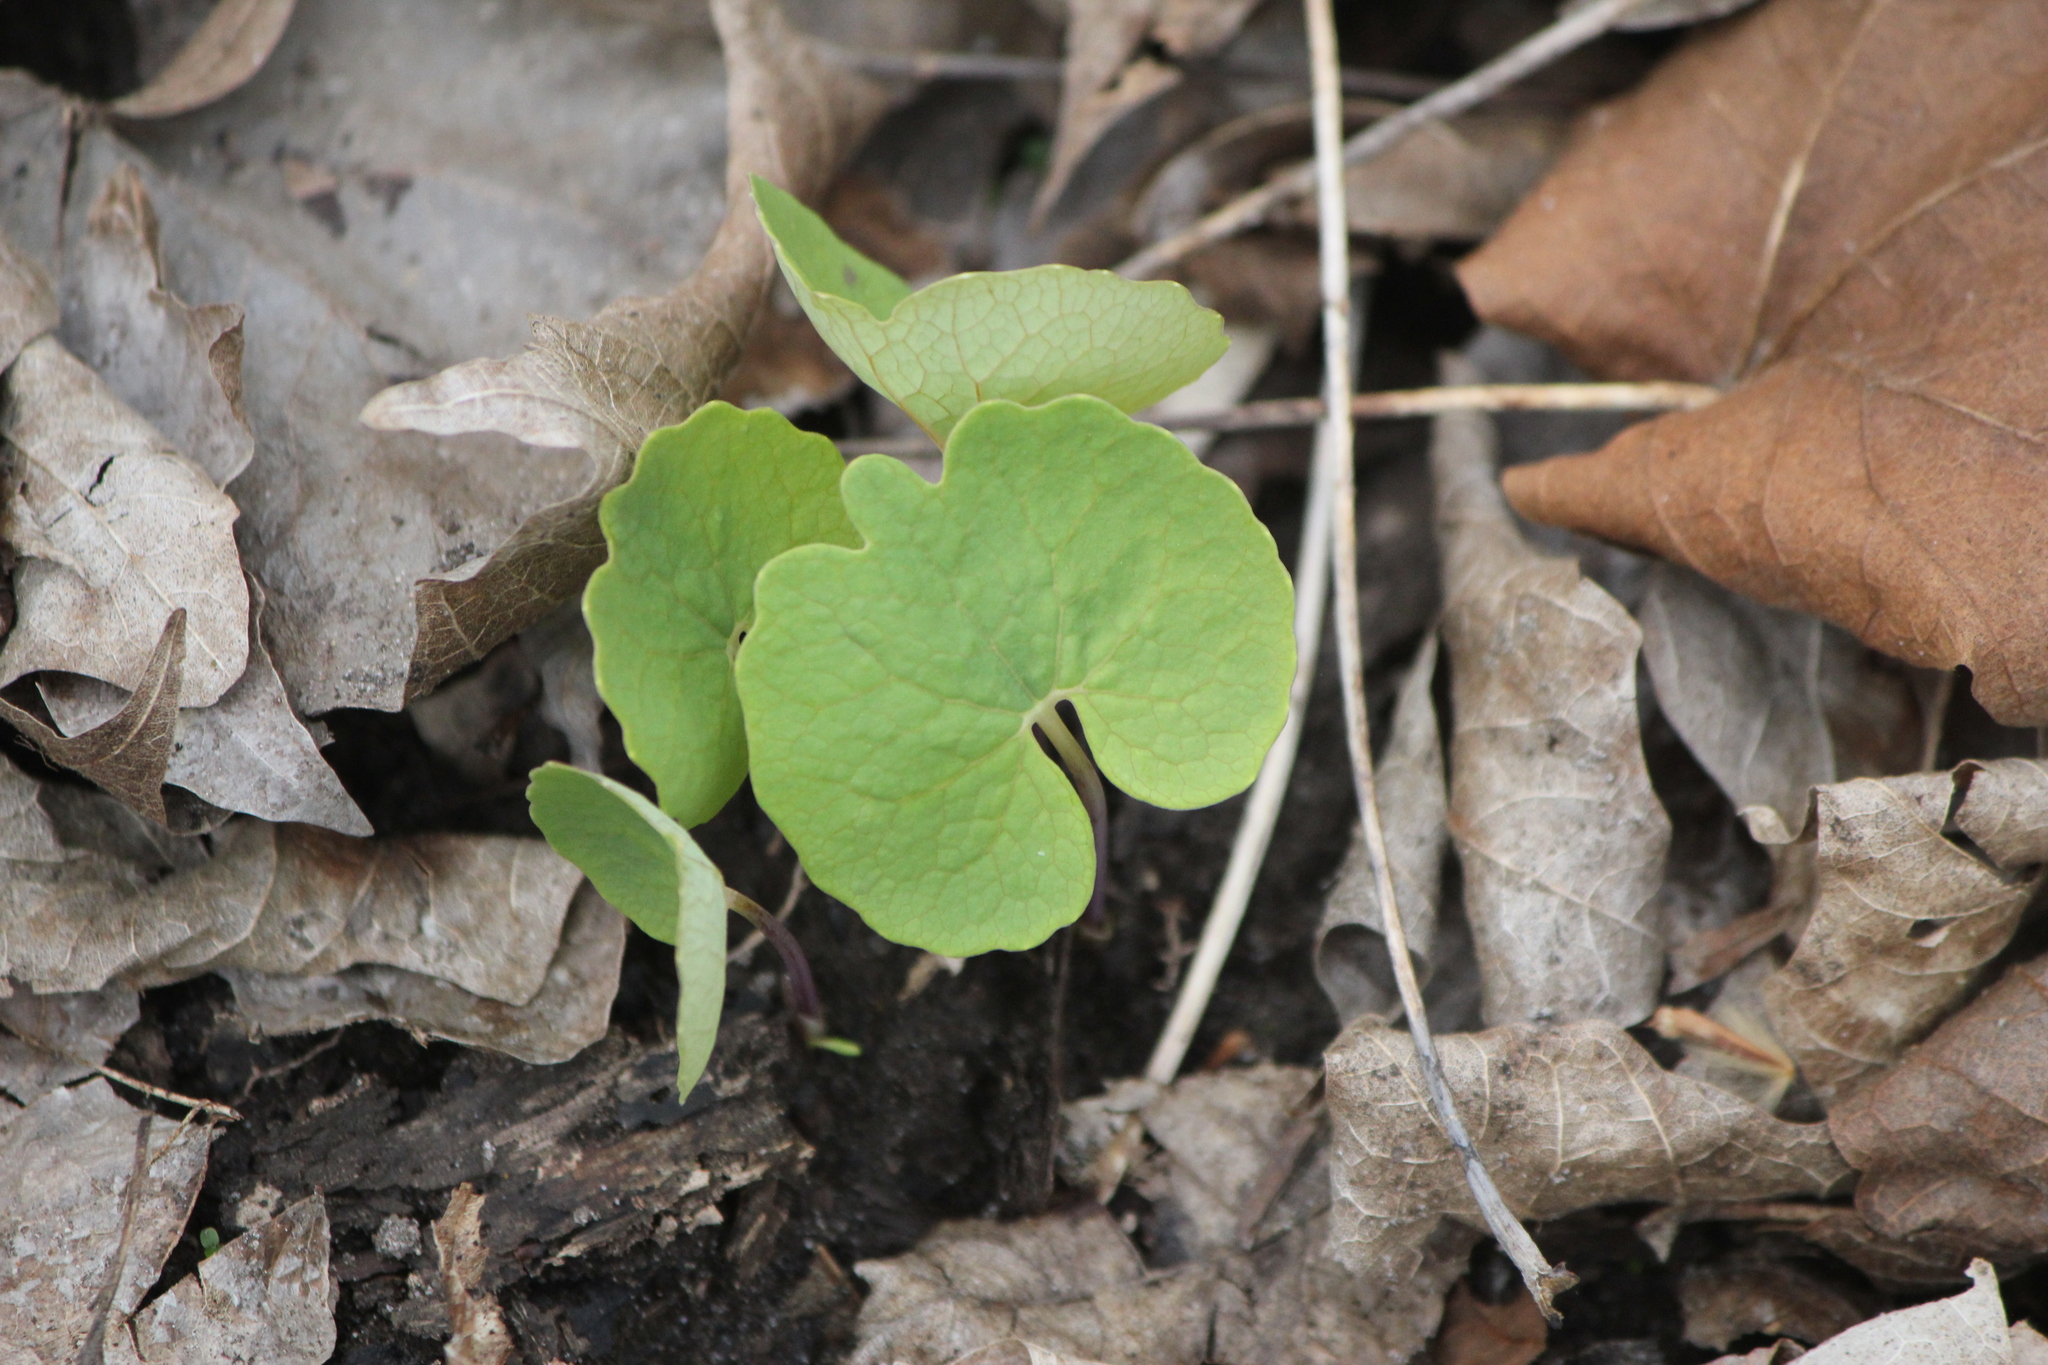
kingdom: Plantae
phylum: Tracheophyta
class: Magnoliopsida
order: Ranunculales
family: Papaveraceae
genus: Sanguinaria
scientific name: Sanguinaria canadensis
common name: Bloodroot
